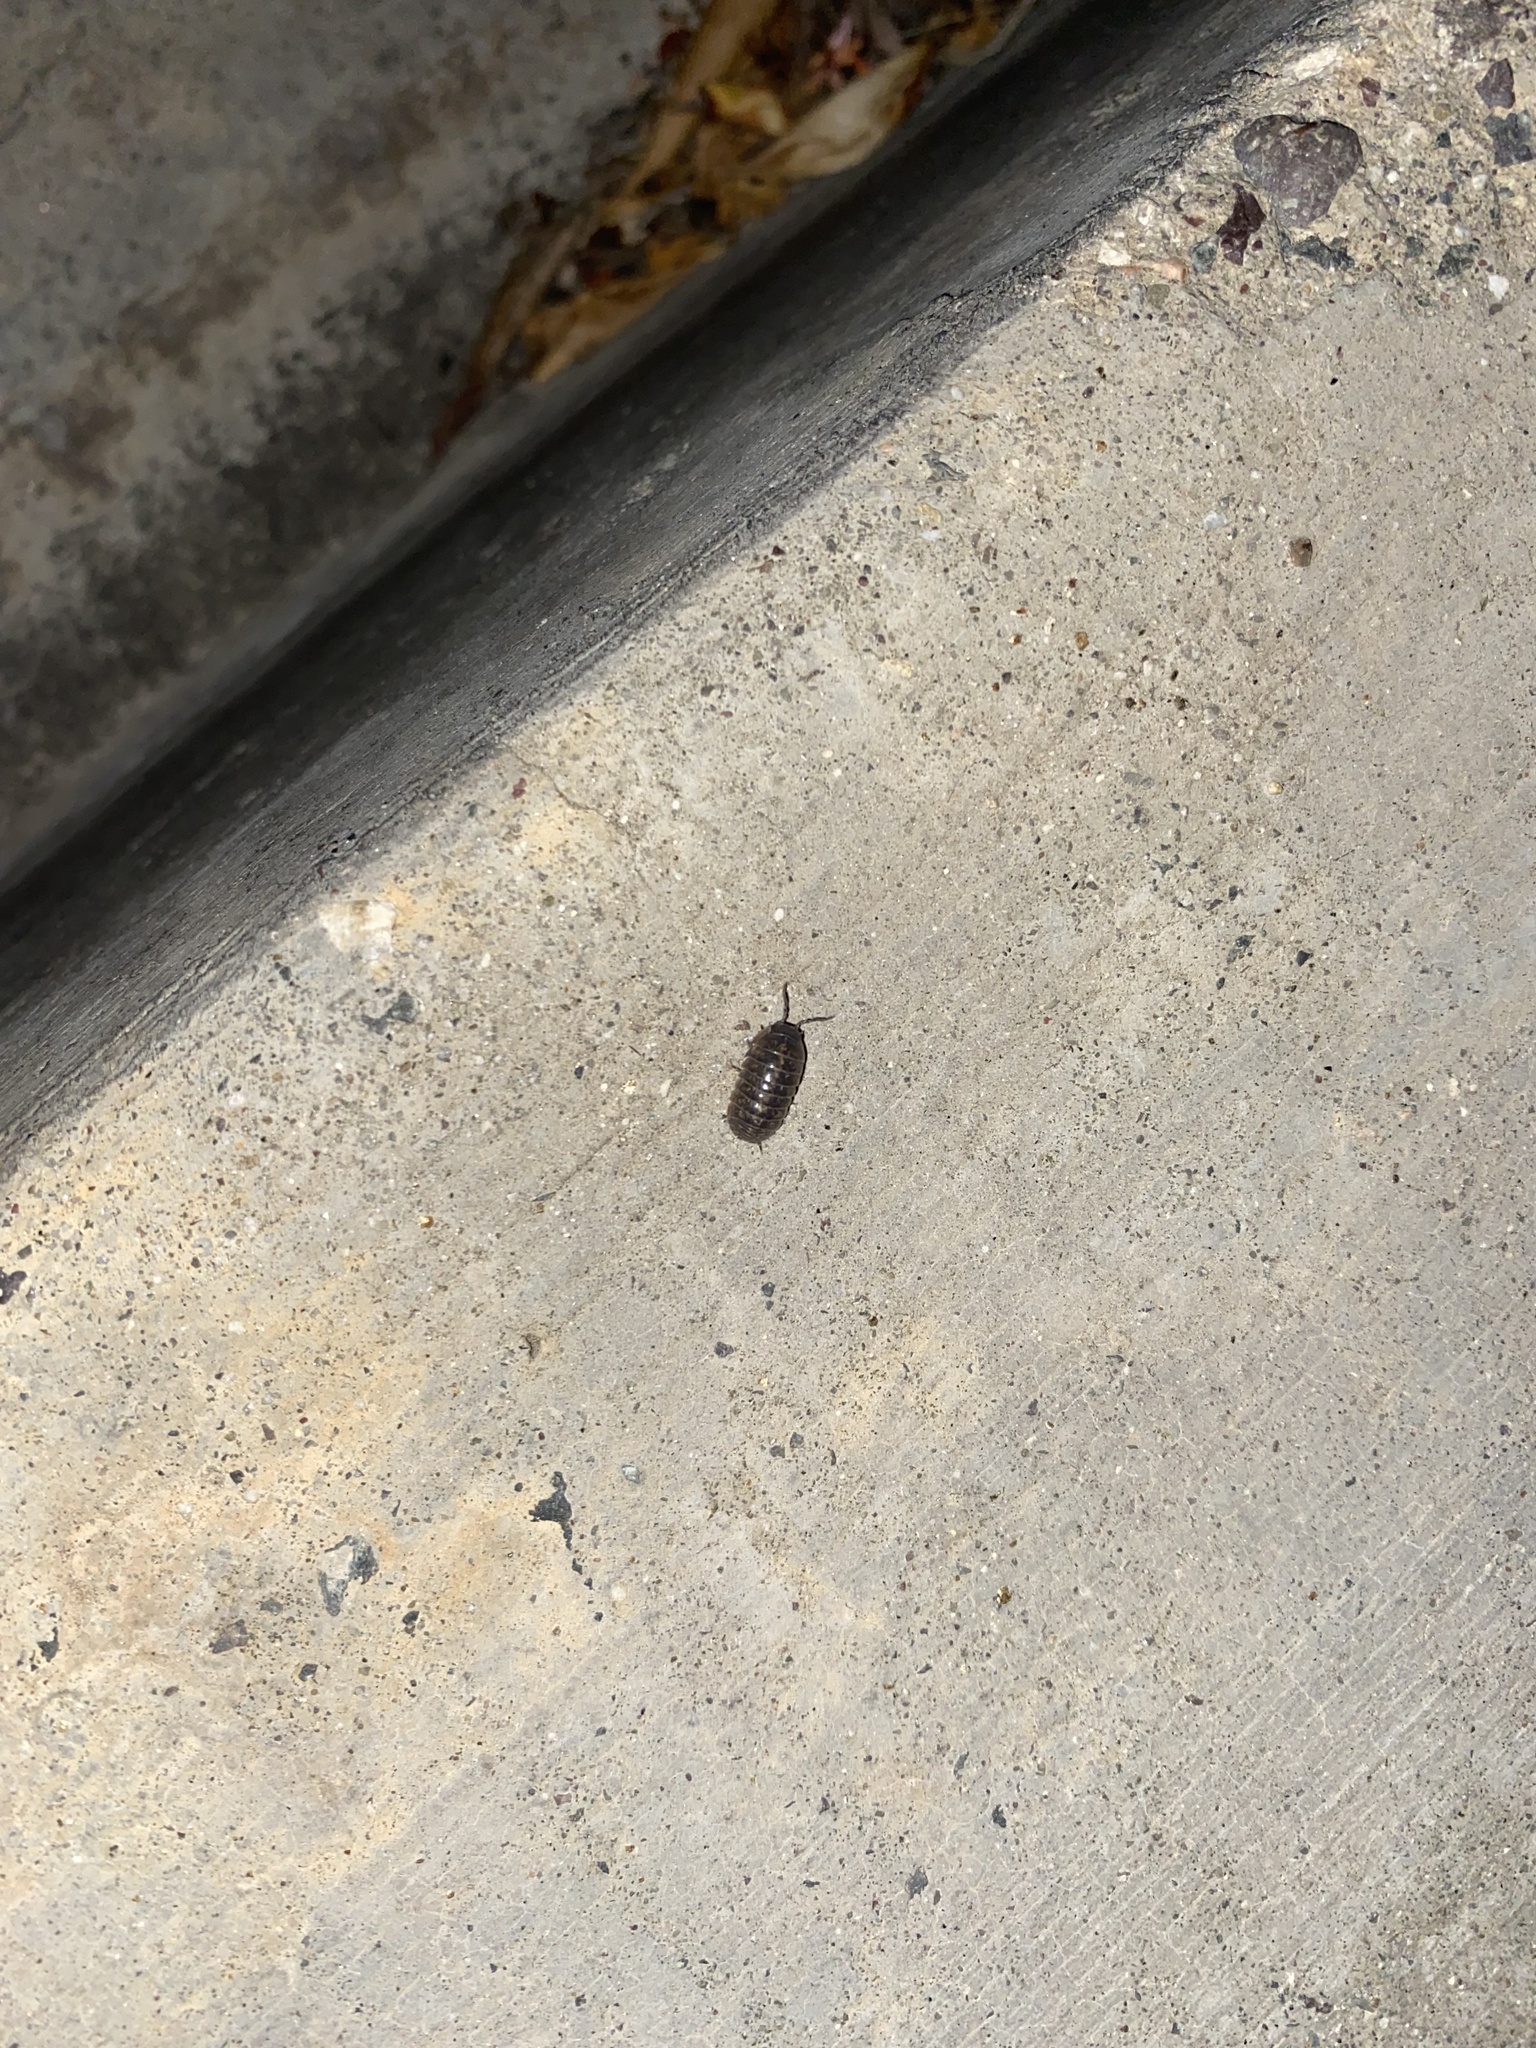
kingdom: Animalia
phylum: Arthropoda
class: Malacostraca
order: Isopoda
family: Armadillidiidae
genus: Armadillidium
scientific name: Armadillidium vulgare
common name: Common pill woodlouse
